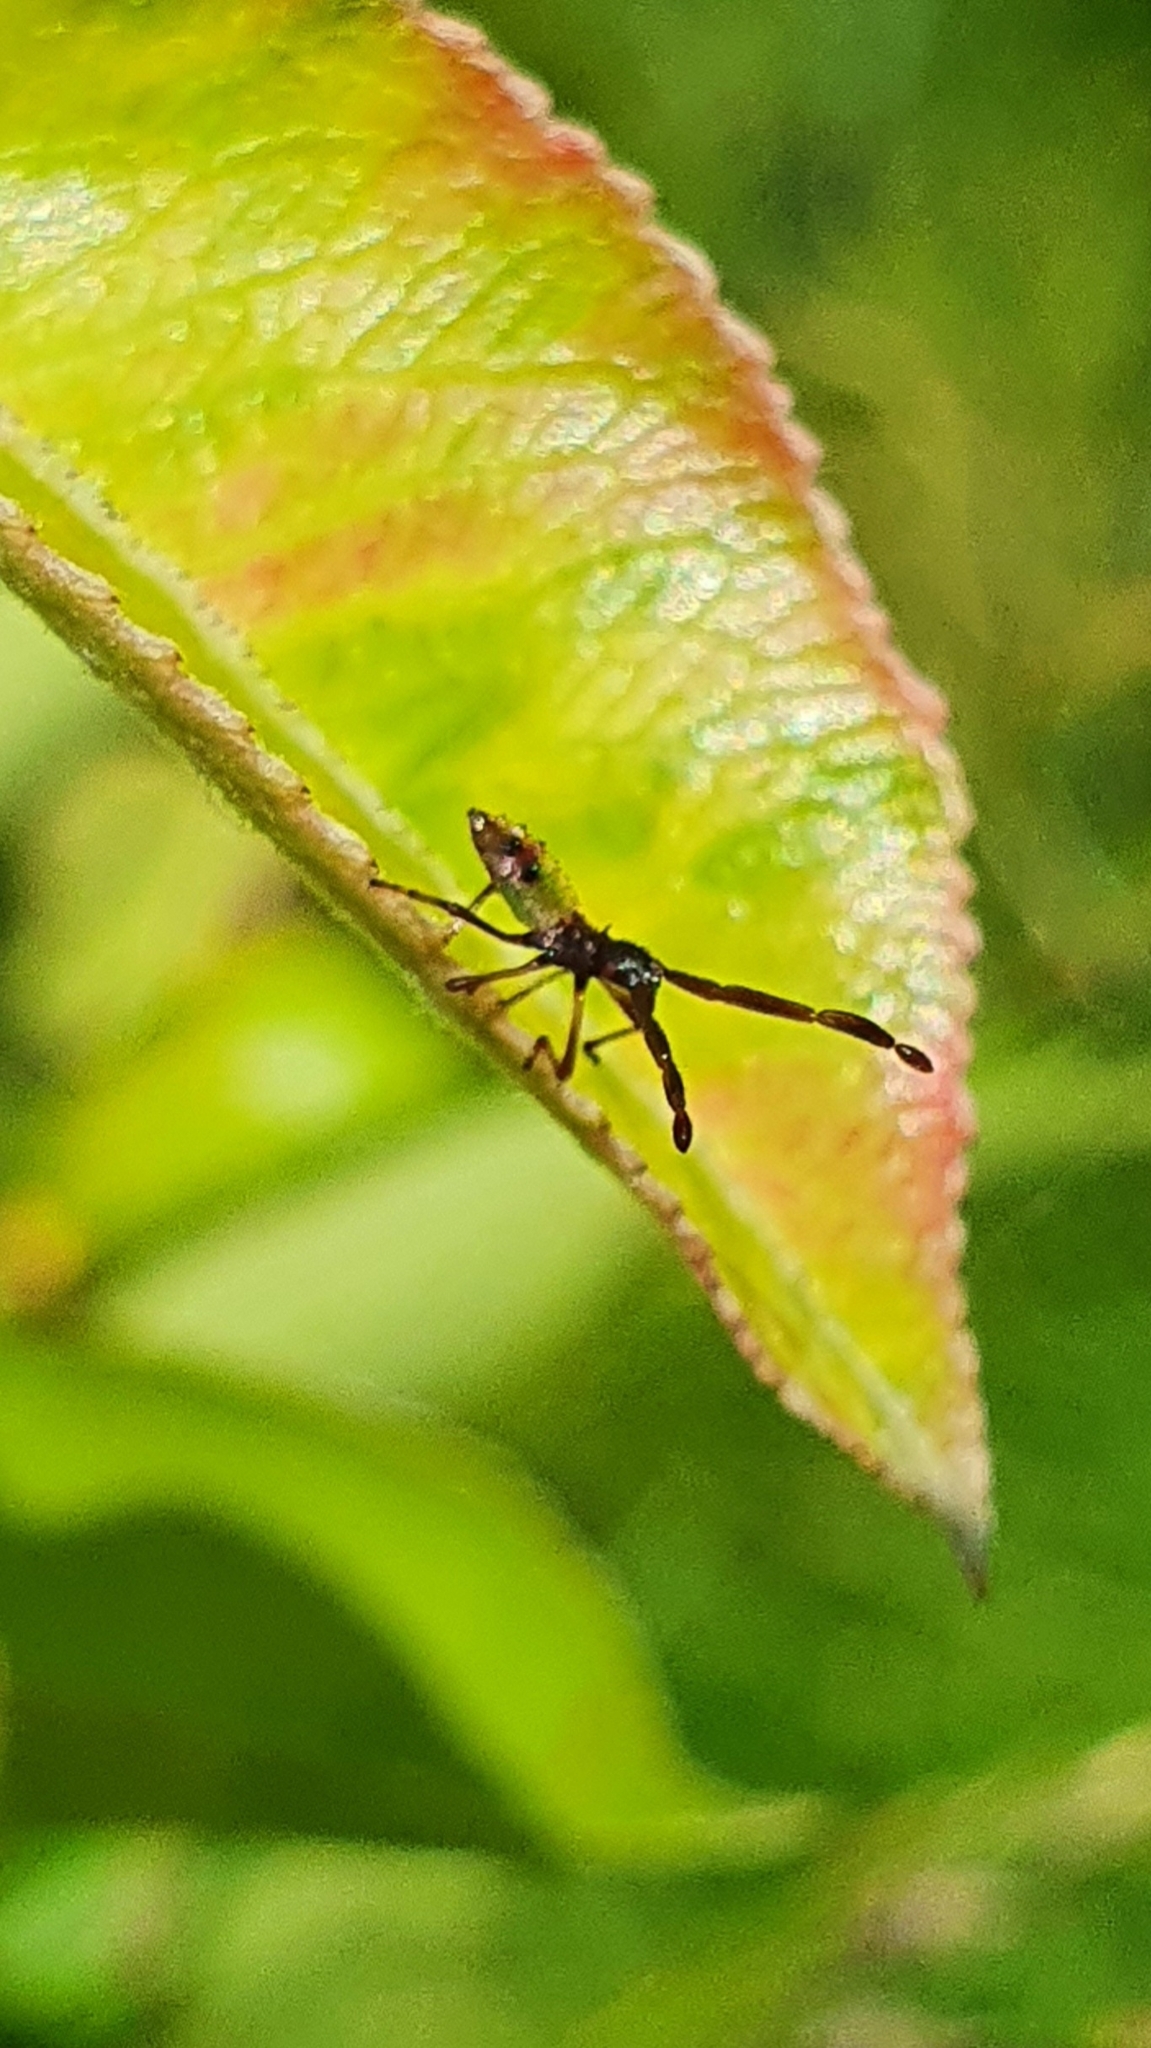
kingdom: Animalia
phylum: Arthropoda
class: Insecta
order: Hemiptera
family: Coreidae
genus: Gonocerus
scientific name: Gonocerus acuteangulatus
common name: Box bug
